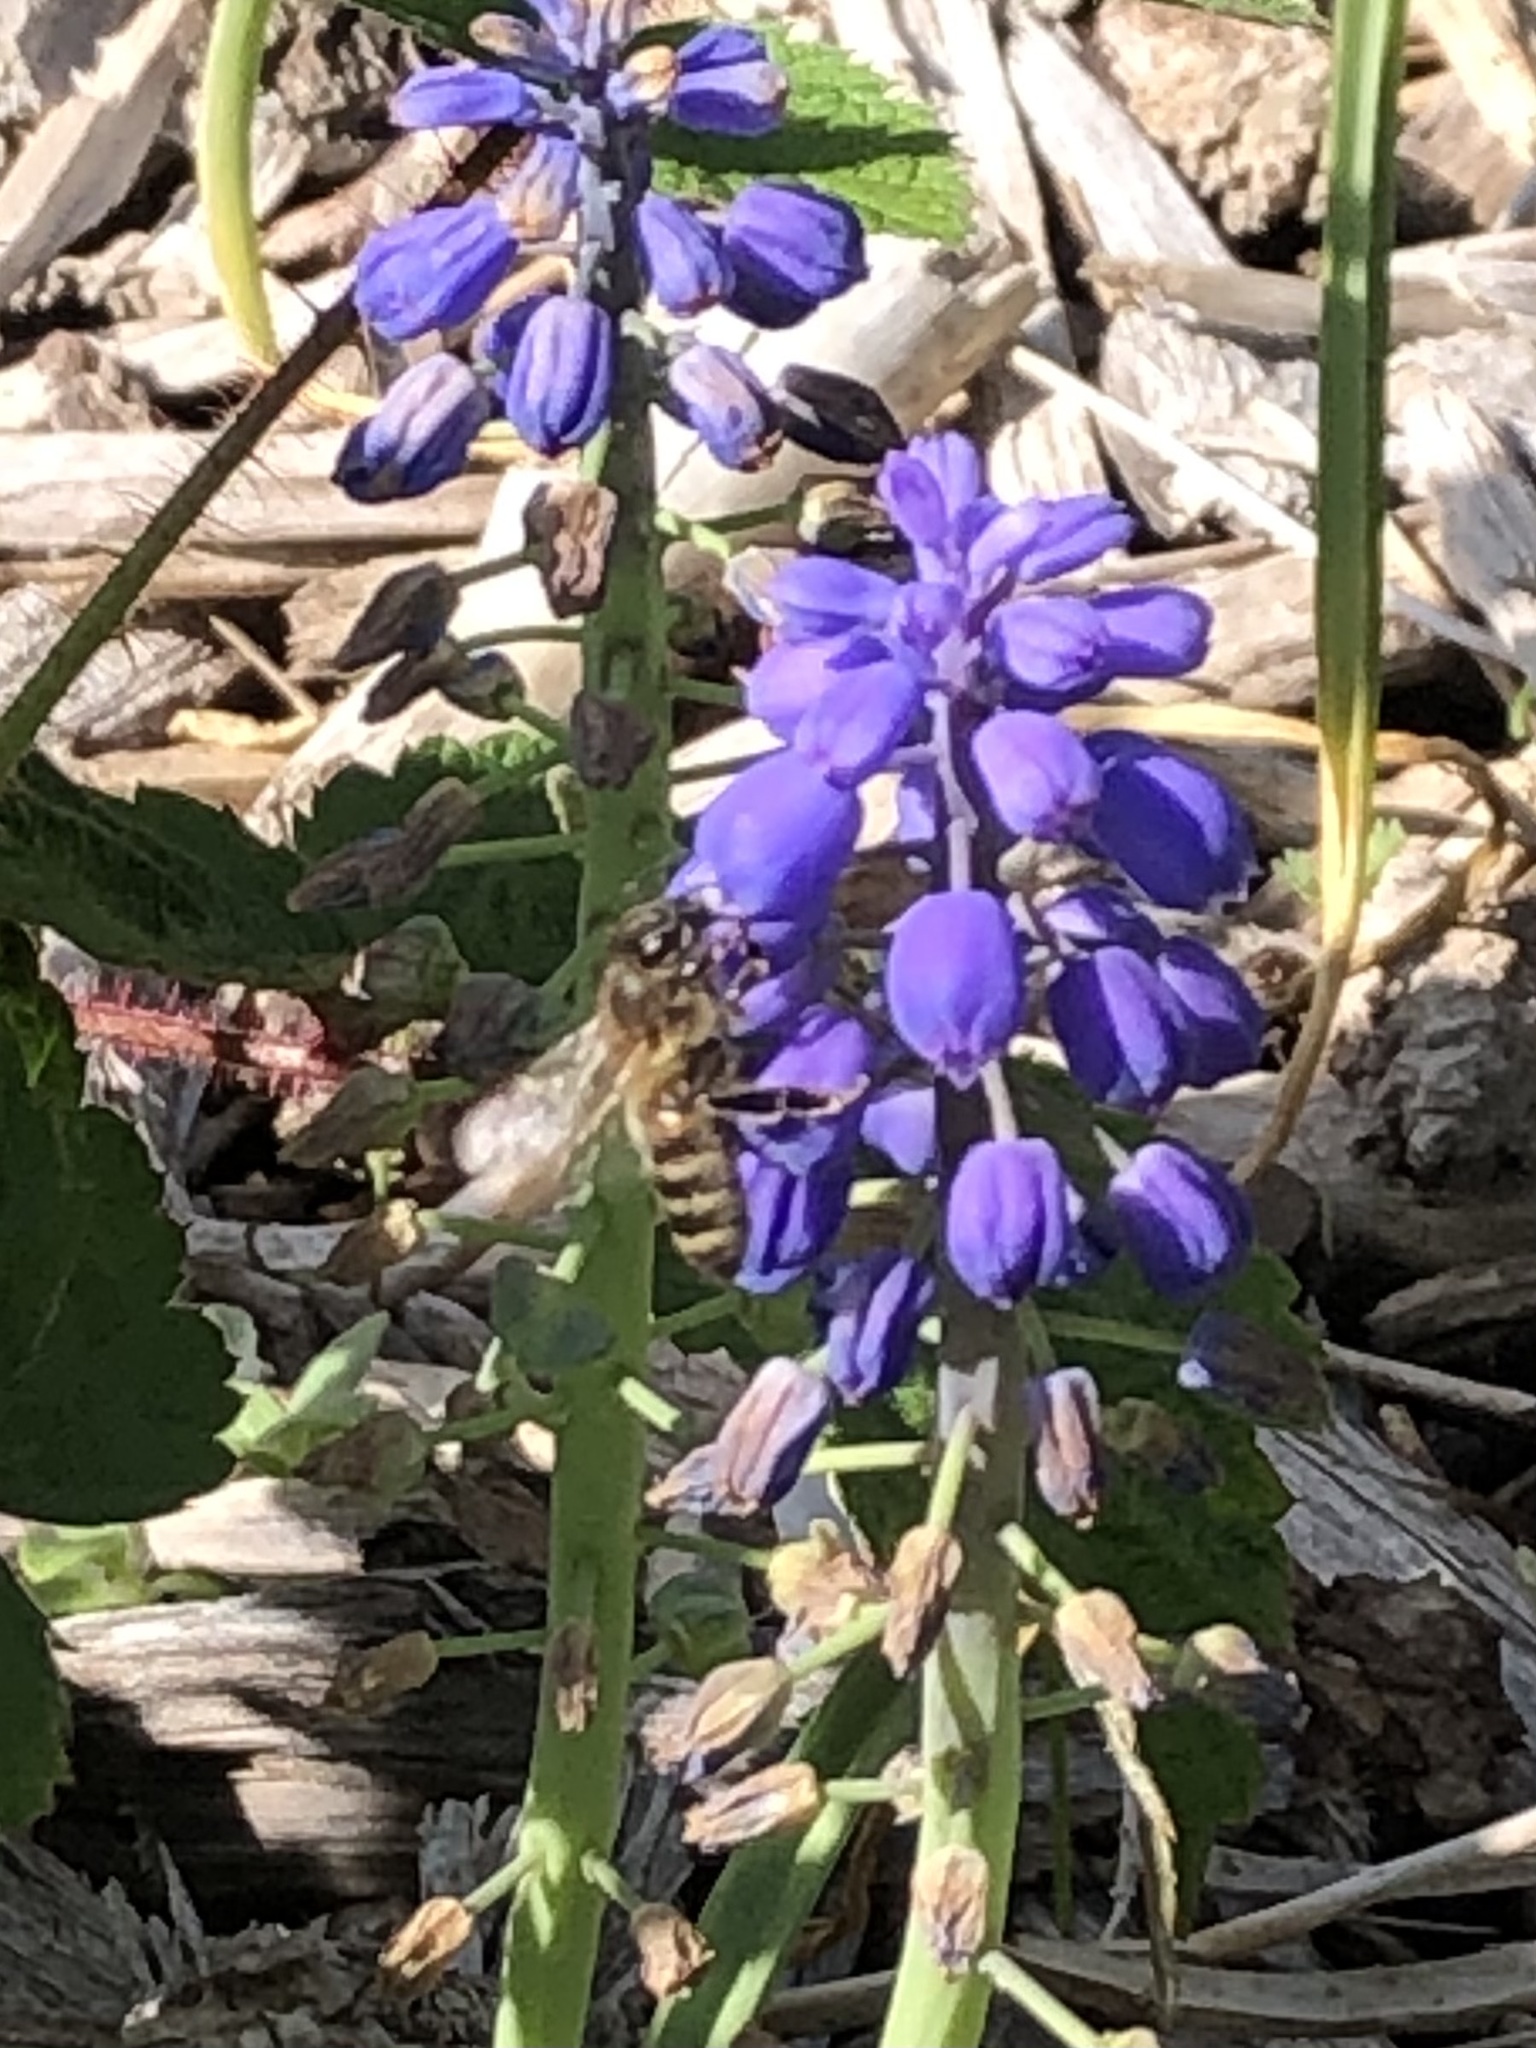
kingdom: Animalia
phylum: Arthropoda
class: Insecta
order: Hymenoptera
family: Apidae
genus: Apis
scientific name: Apis mellifera
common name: Honey bee
